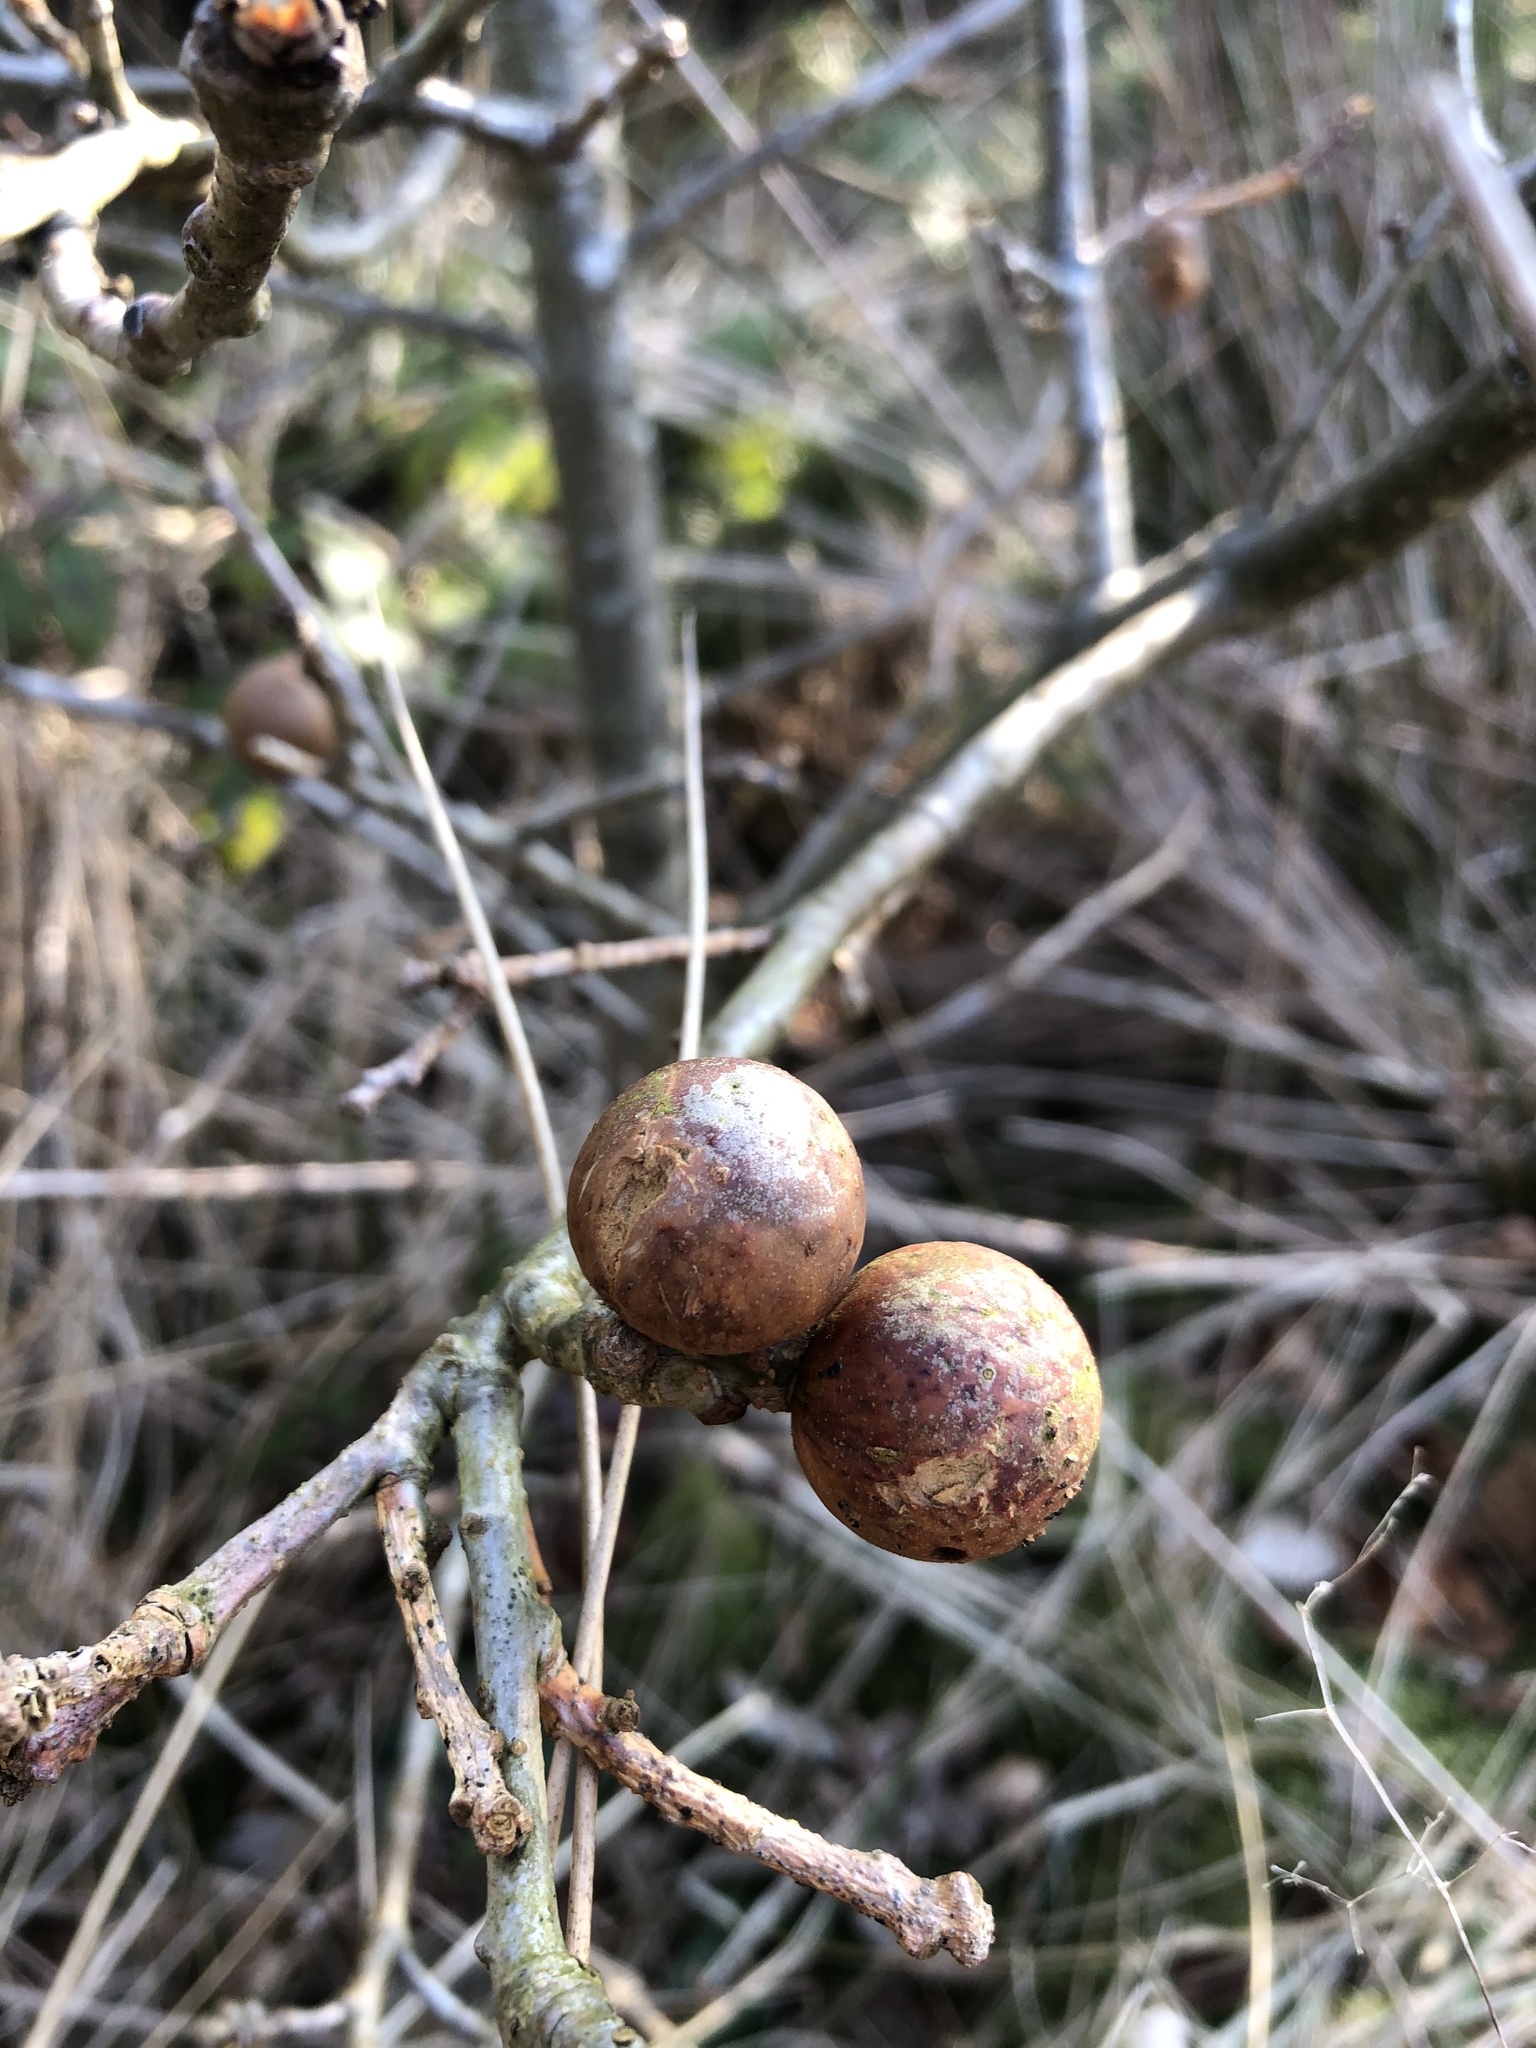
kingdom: Animalia
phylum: Arthropoda
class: Insecta
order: Hymenoptera
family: Cynipidae
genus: Andricus
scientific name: Andricus kollari
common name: Marble gall
